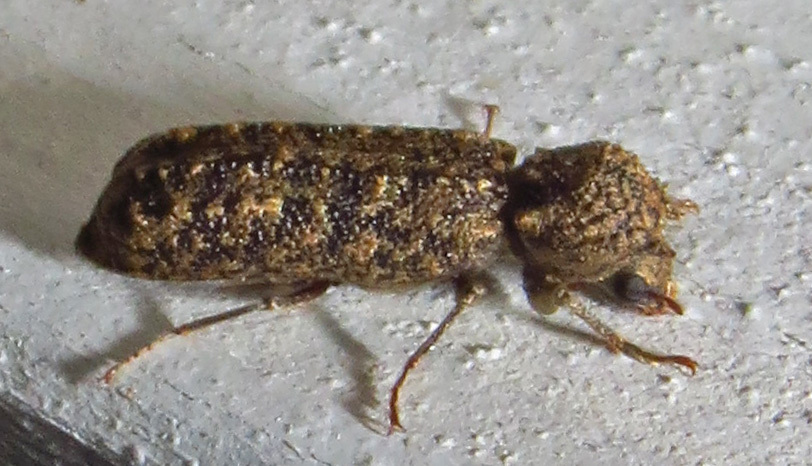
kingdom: Animalia
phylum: Arthropoda
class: Insecta
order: Coleoptera
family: Bostrichidae
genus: Lichenophanes
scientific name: Lichenophanes bicornis
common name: Two-horned powder-post beetle
